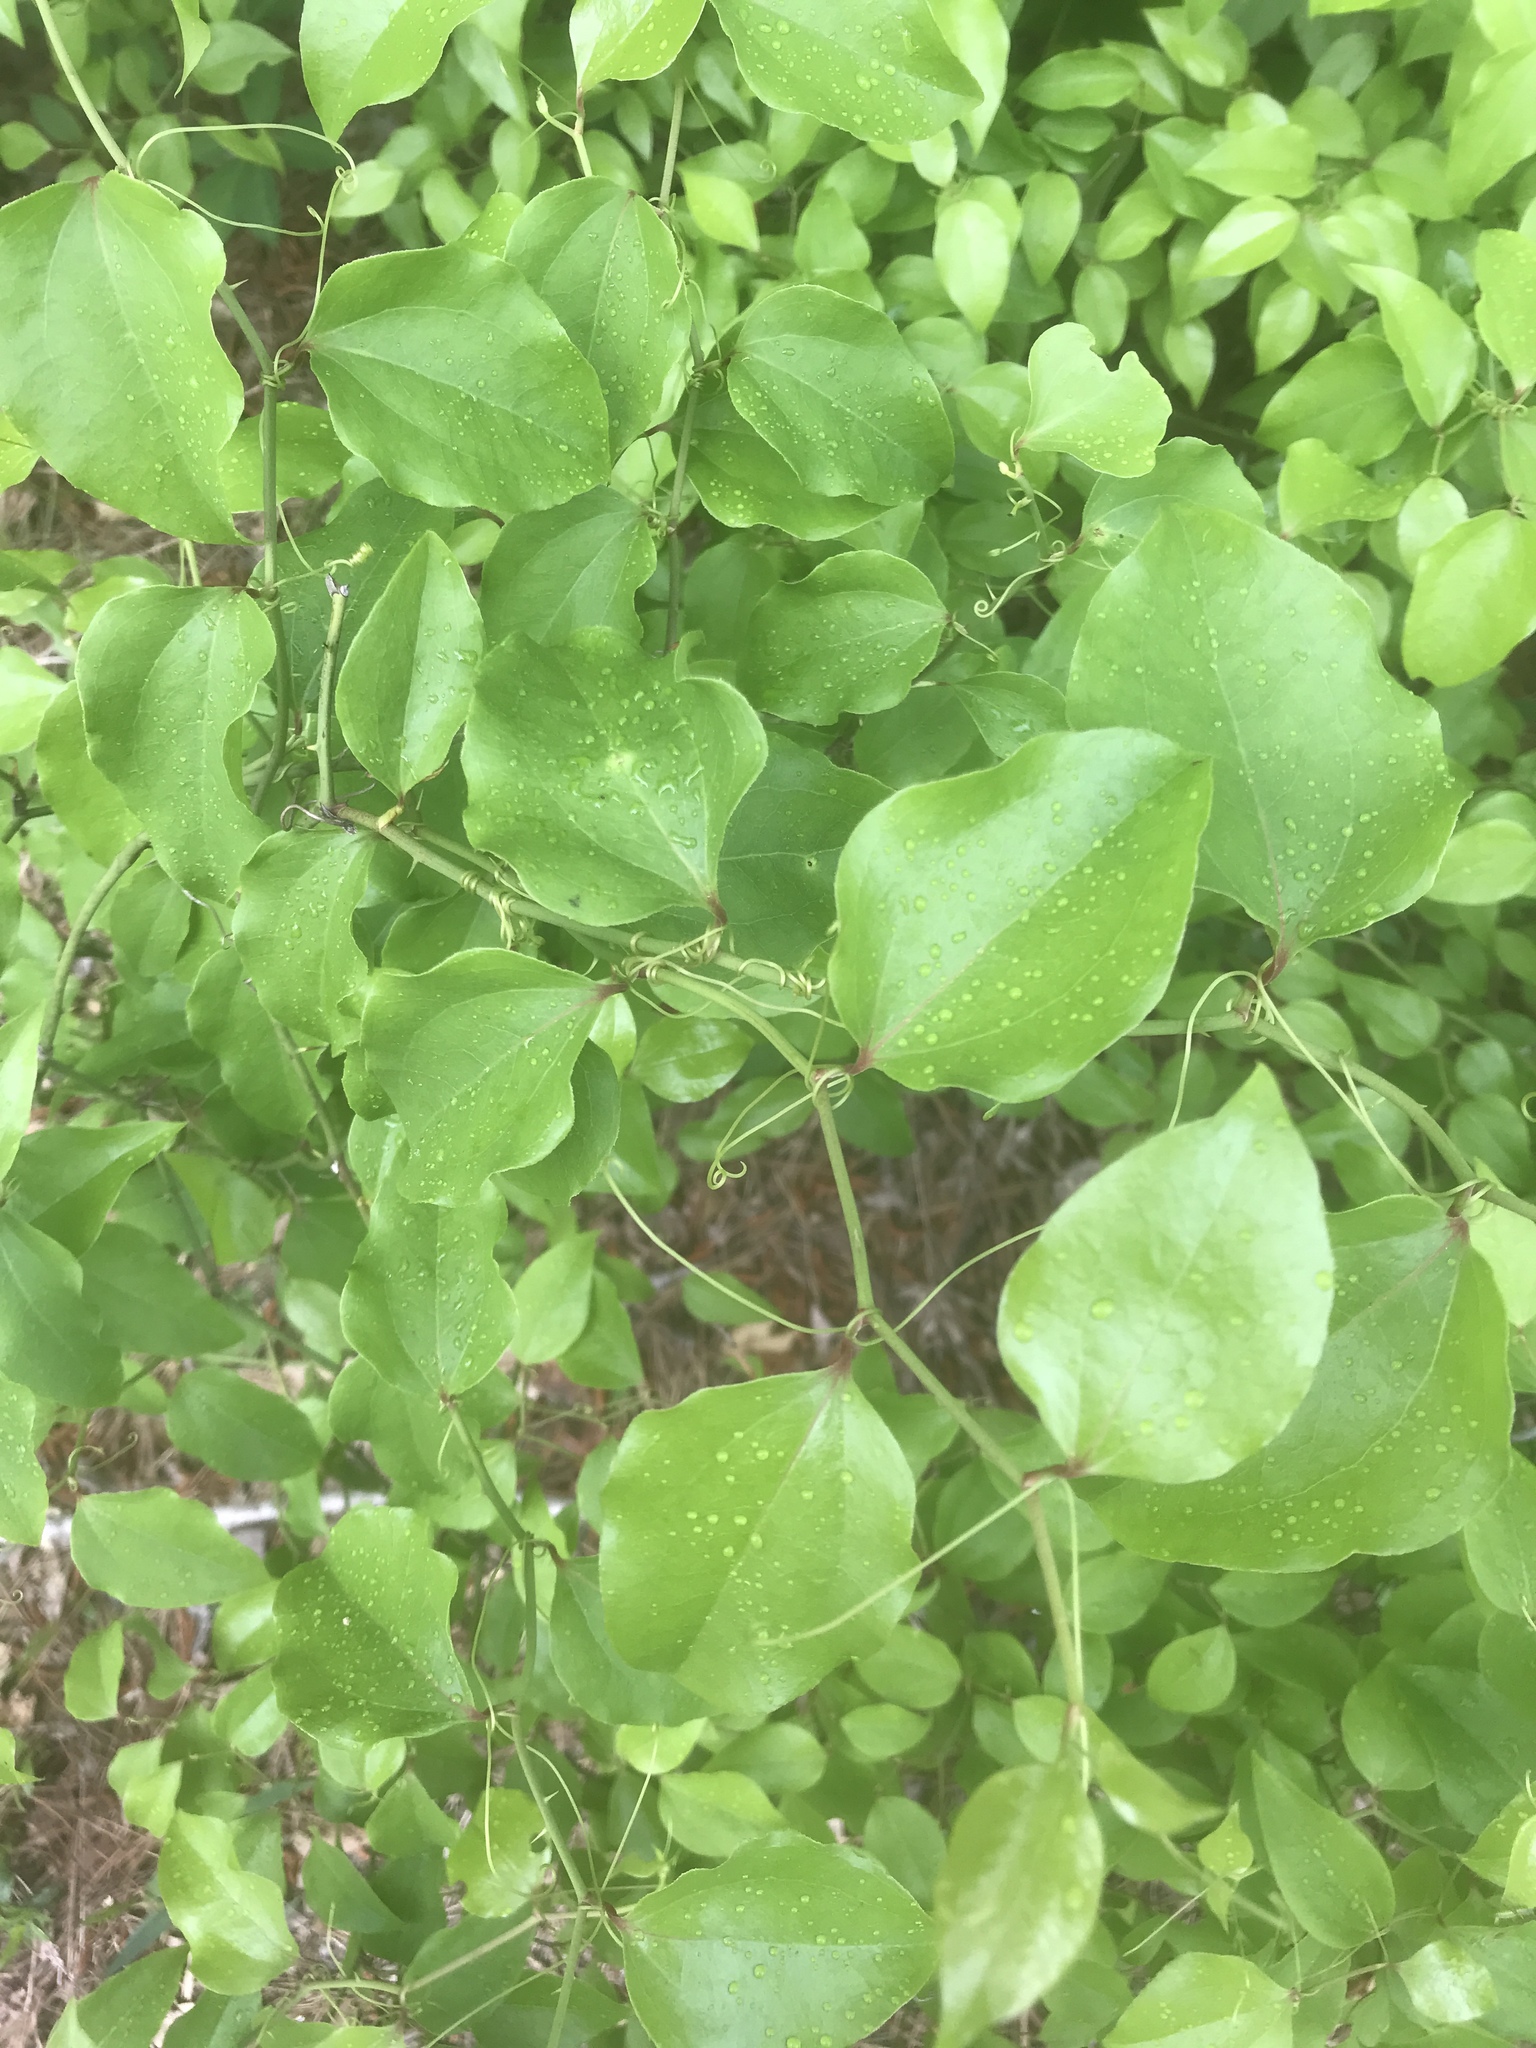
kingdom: Plantae
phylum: Tracheophyta
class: Liliopsida
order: Liliales
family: Smilacaceae
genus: Smilax
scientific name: Smilax rotundifolia
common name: Bullbriar
